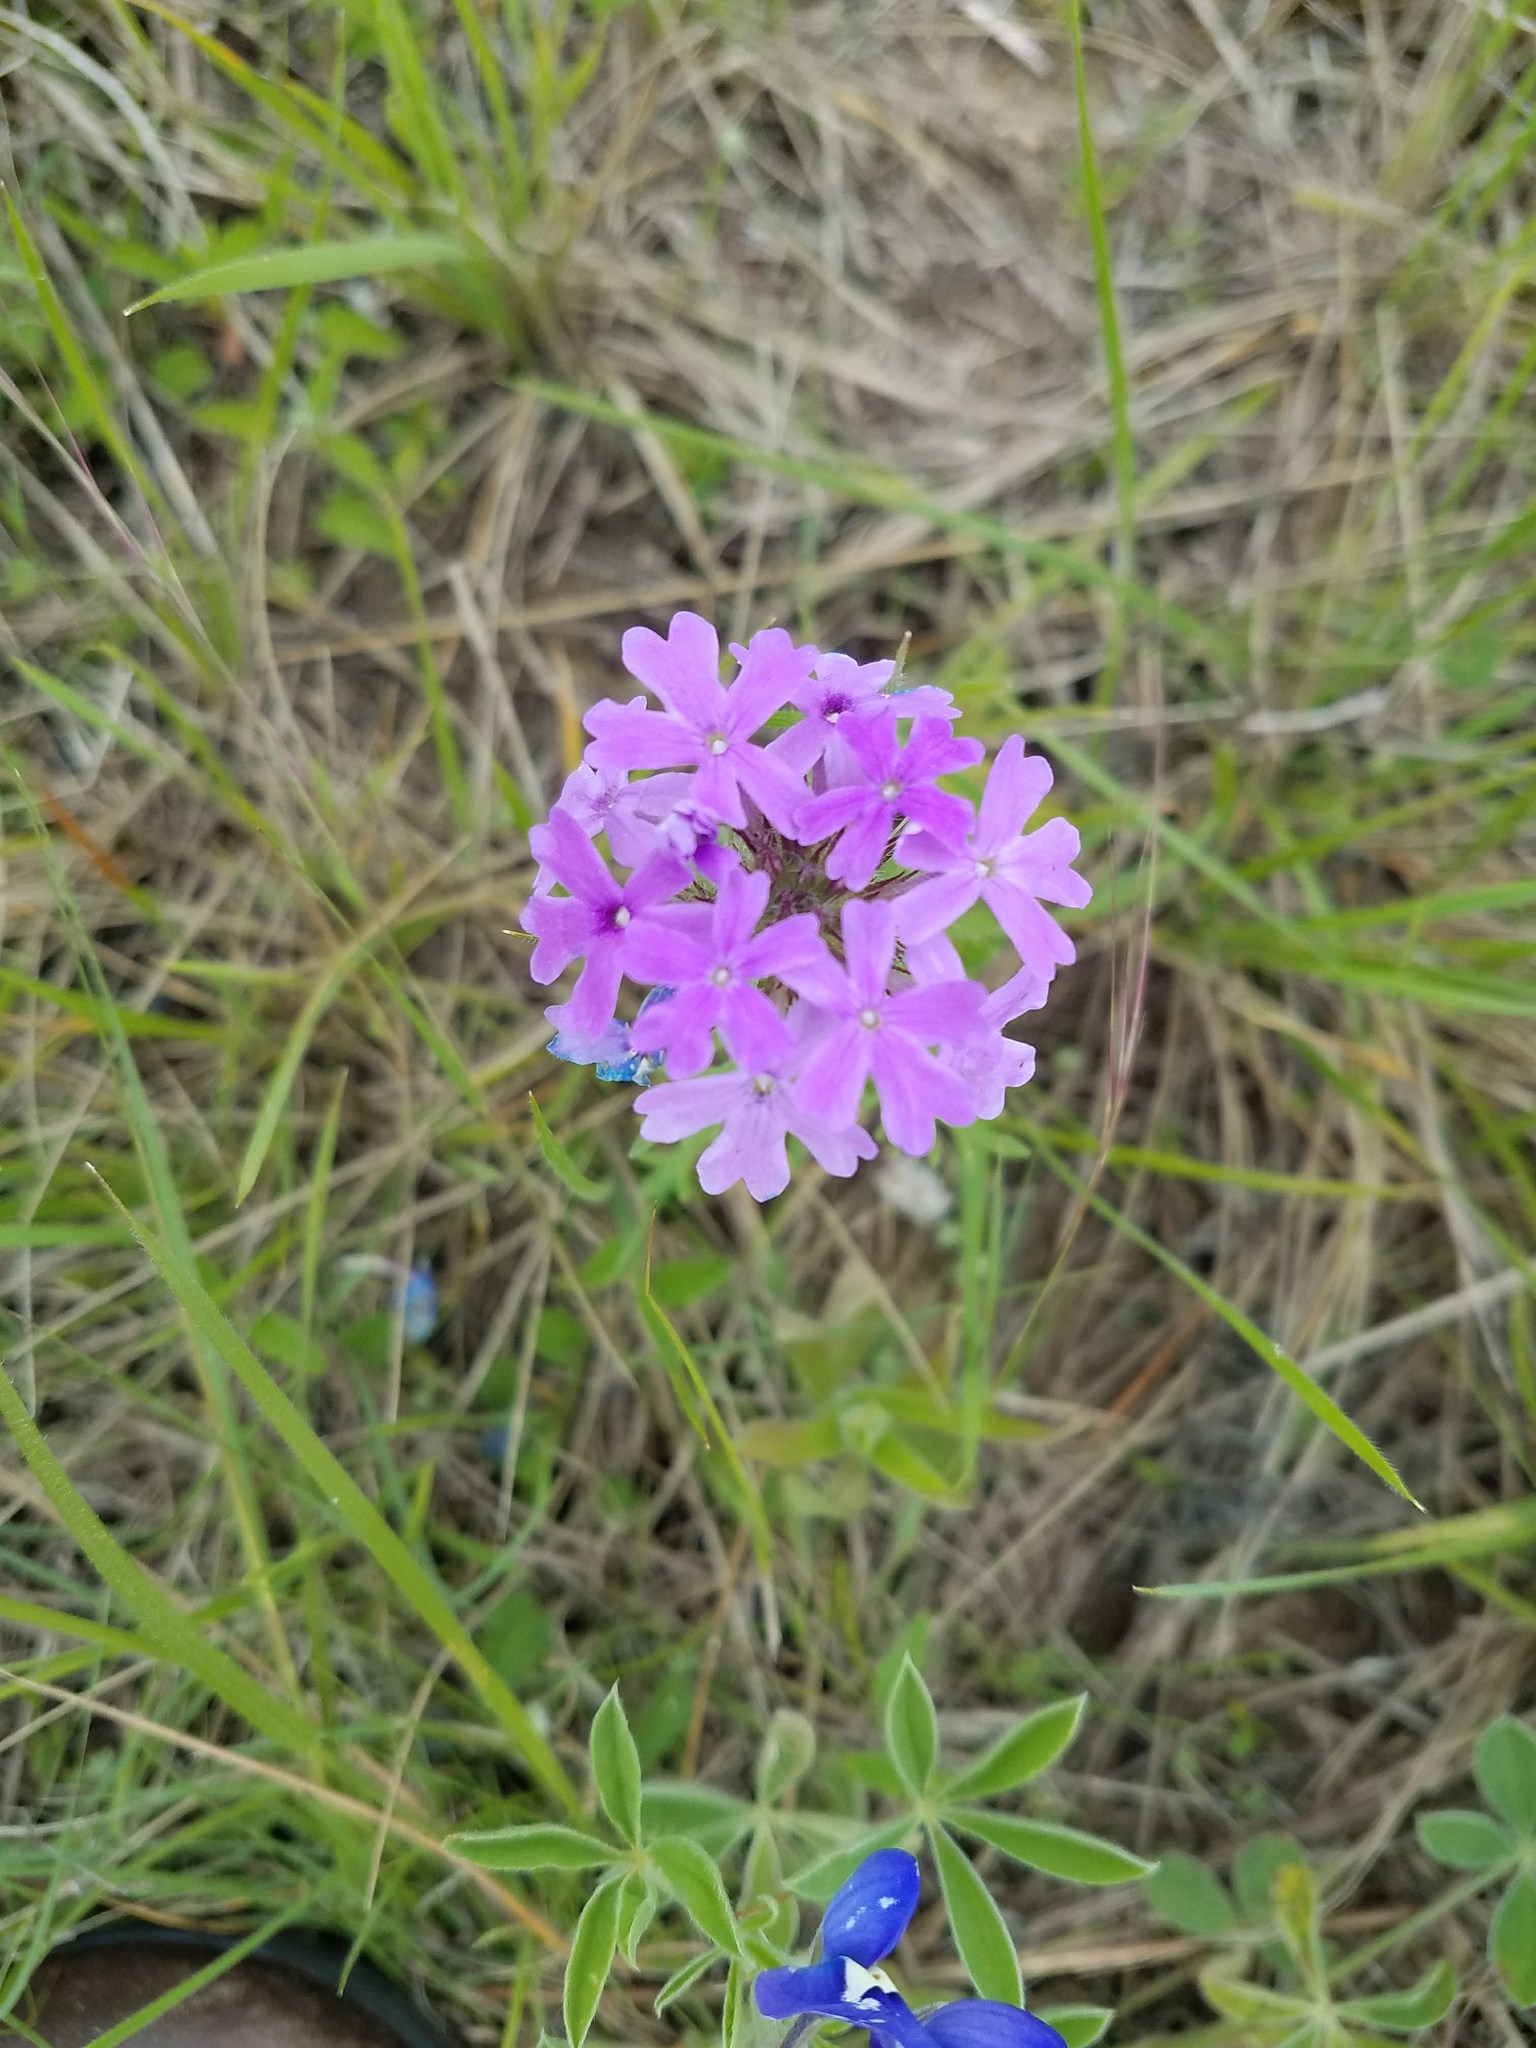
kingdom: Plantae
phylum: Tracheophyta
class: Magnoliopsida
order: Lamiales
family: Verbenaceae
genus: Verbena
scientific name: Verbena bipinnatifida
